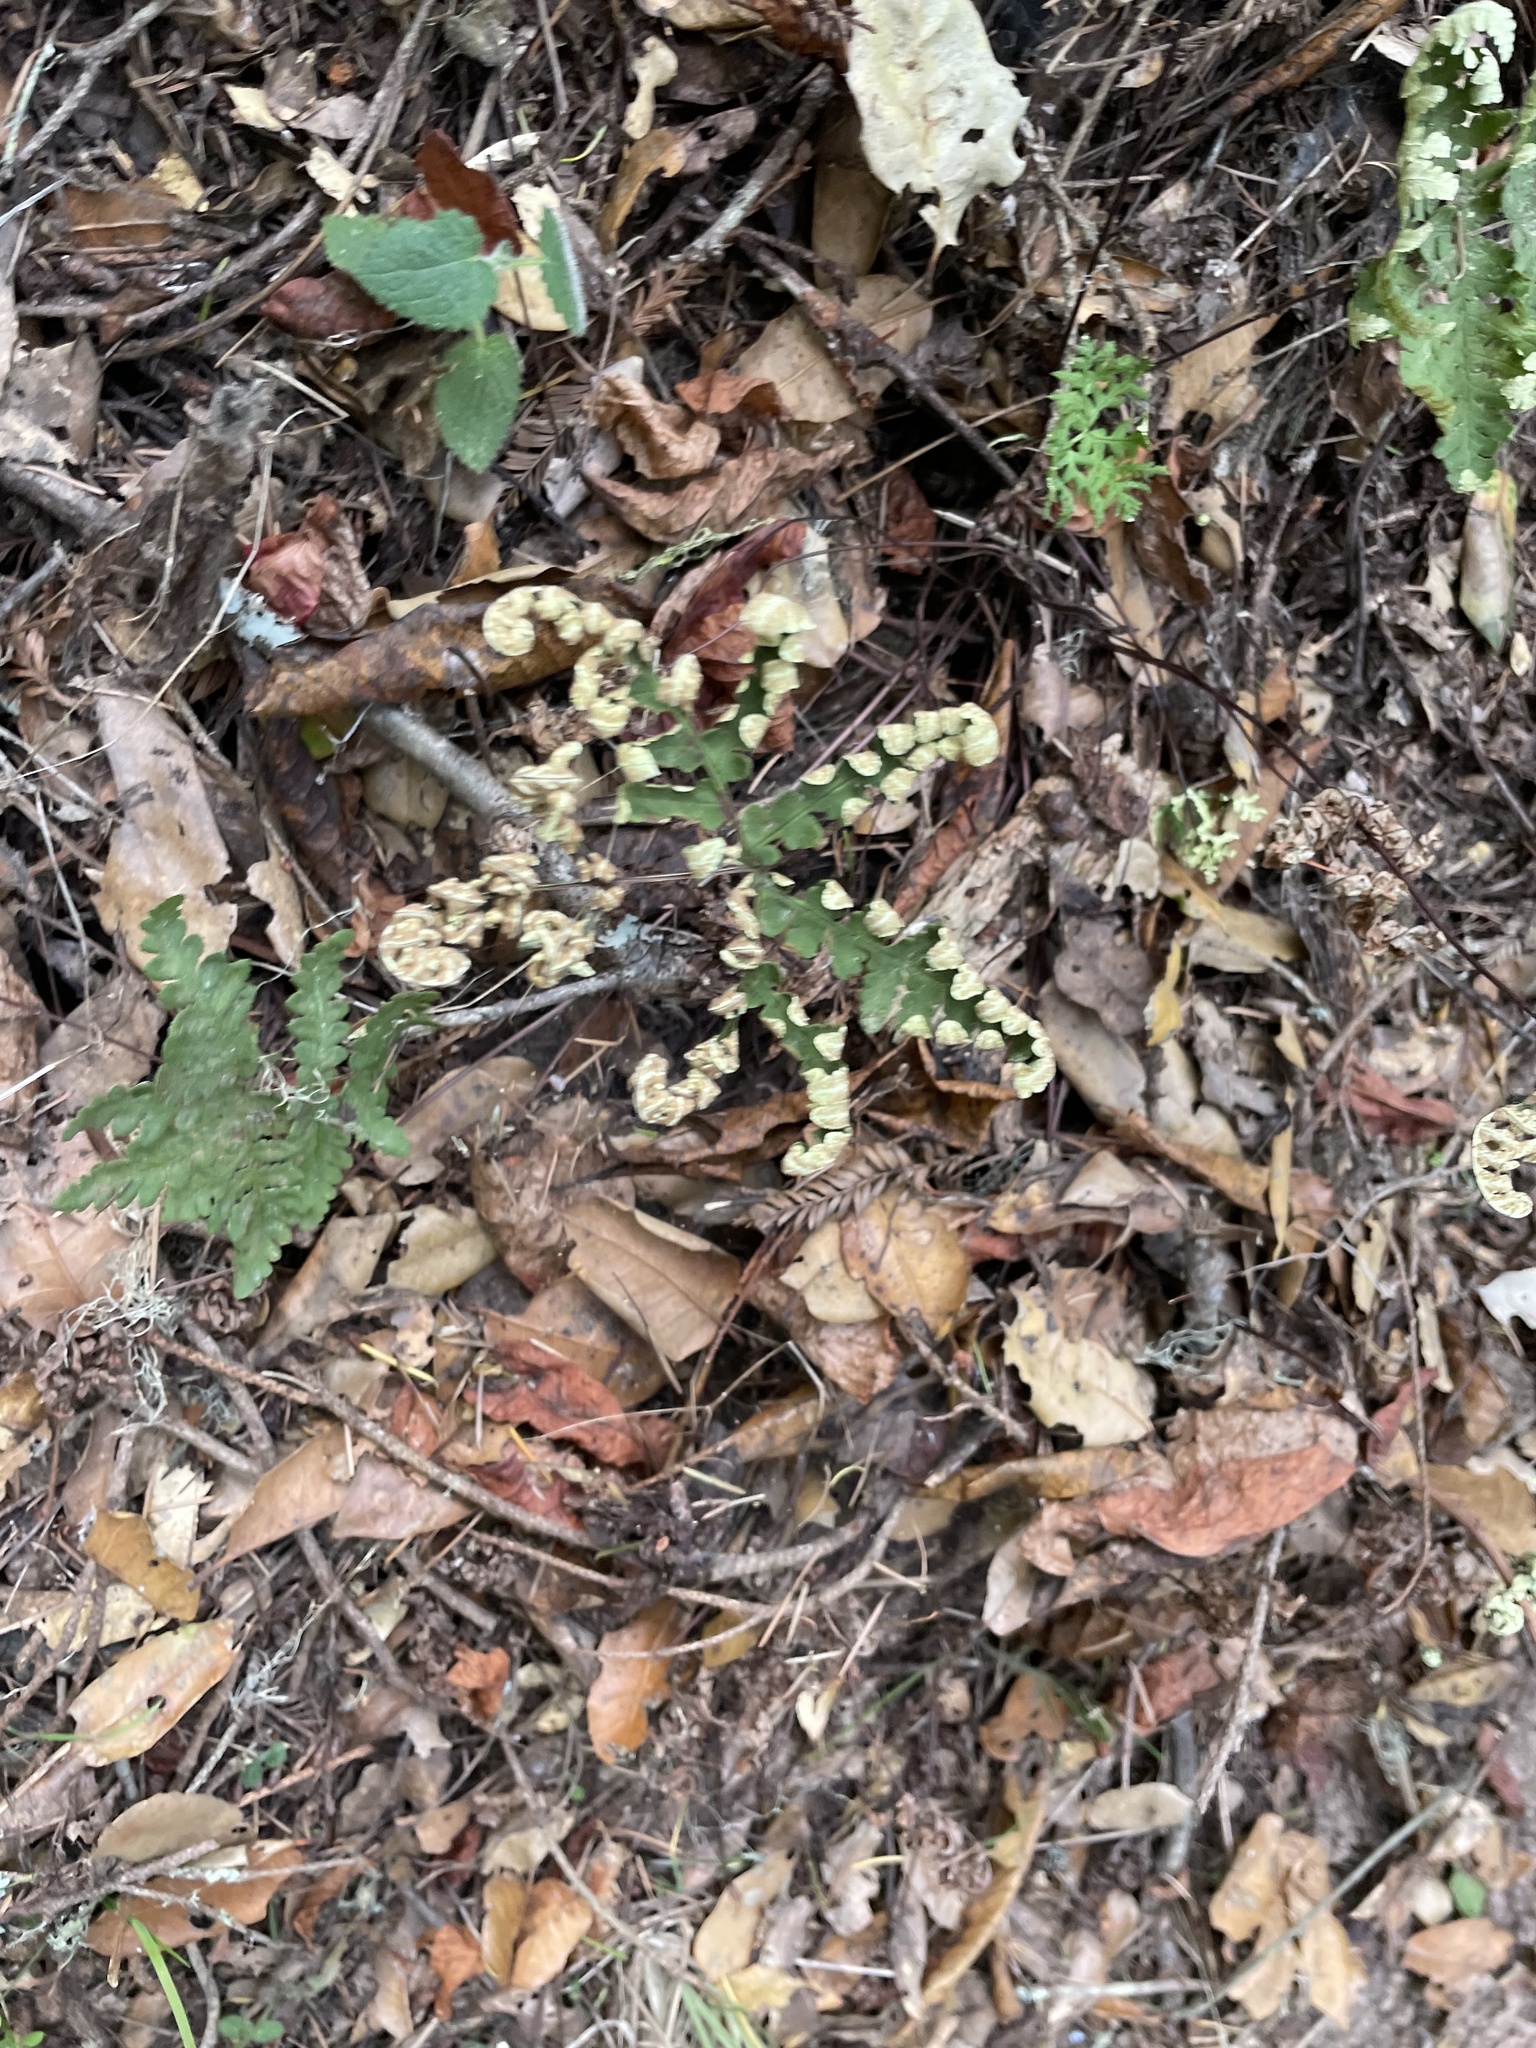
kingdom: Plantae
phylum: Tracheophyta
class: Polypodiopsida
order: Polypodiales
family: Pteridaceae
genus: Pentagramma
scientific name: Pentagramma triangularis
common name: Gold fern
